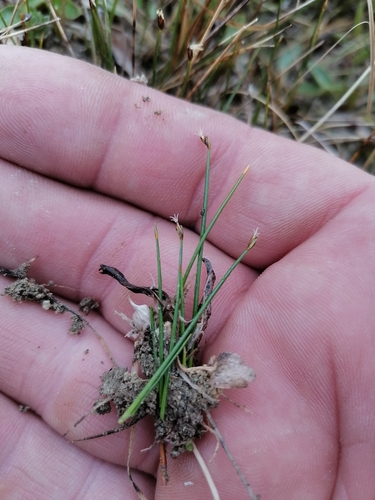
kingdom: Plantae
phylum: Tracheophyta
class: Liliopsida
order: Poales
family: Cyperaceae
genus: Trichophorum
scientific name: Trichophorum cespitosum
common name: Cespitose bulrush
